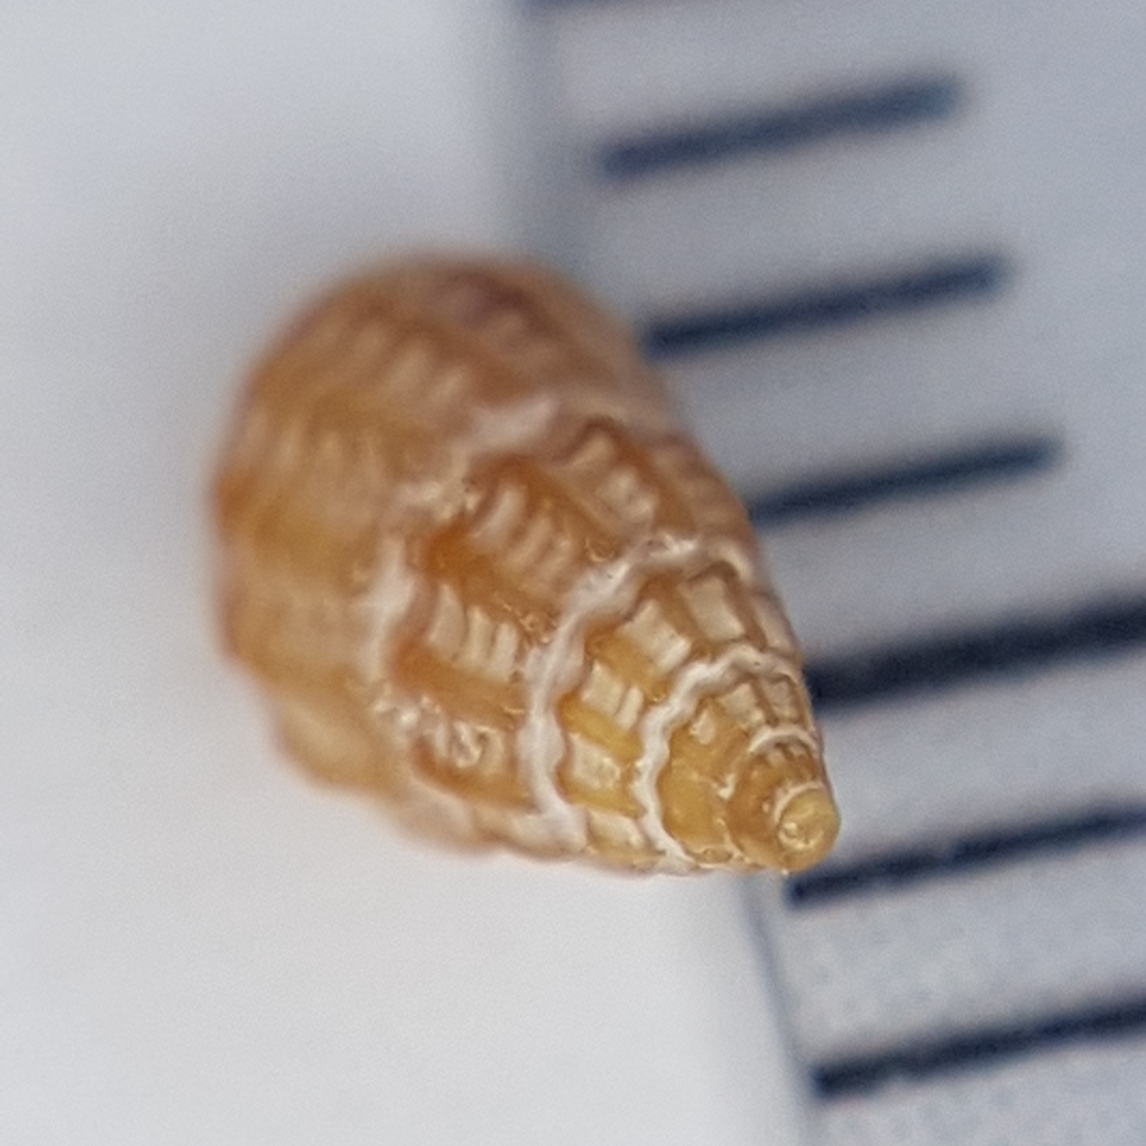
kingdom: Animalia
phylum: Mollusca
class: Gastropoda
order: Littorinimorpha
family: Rissoidae
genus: Alvania
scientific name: Alvania discors
